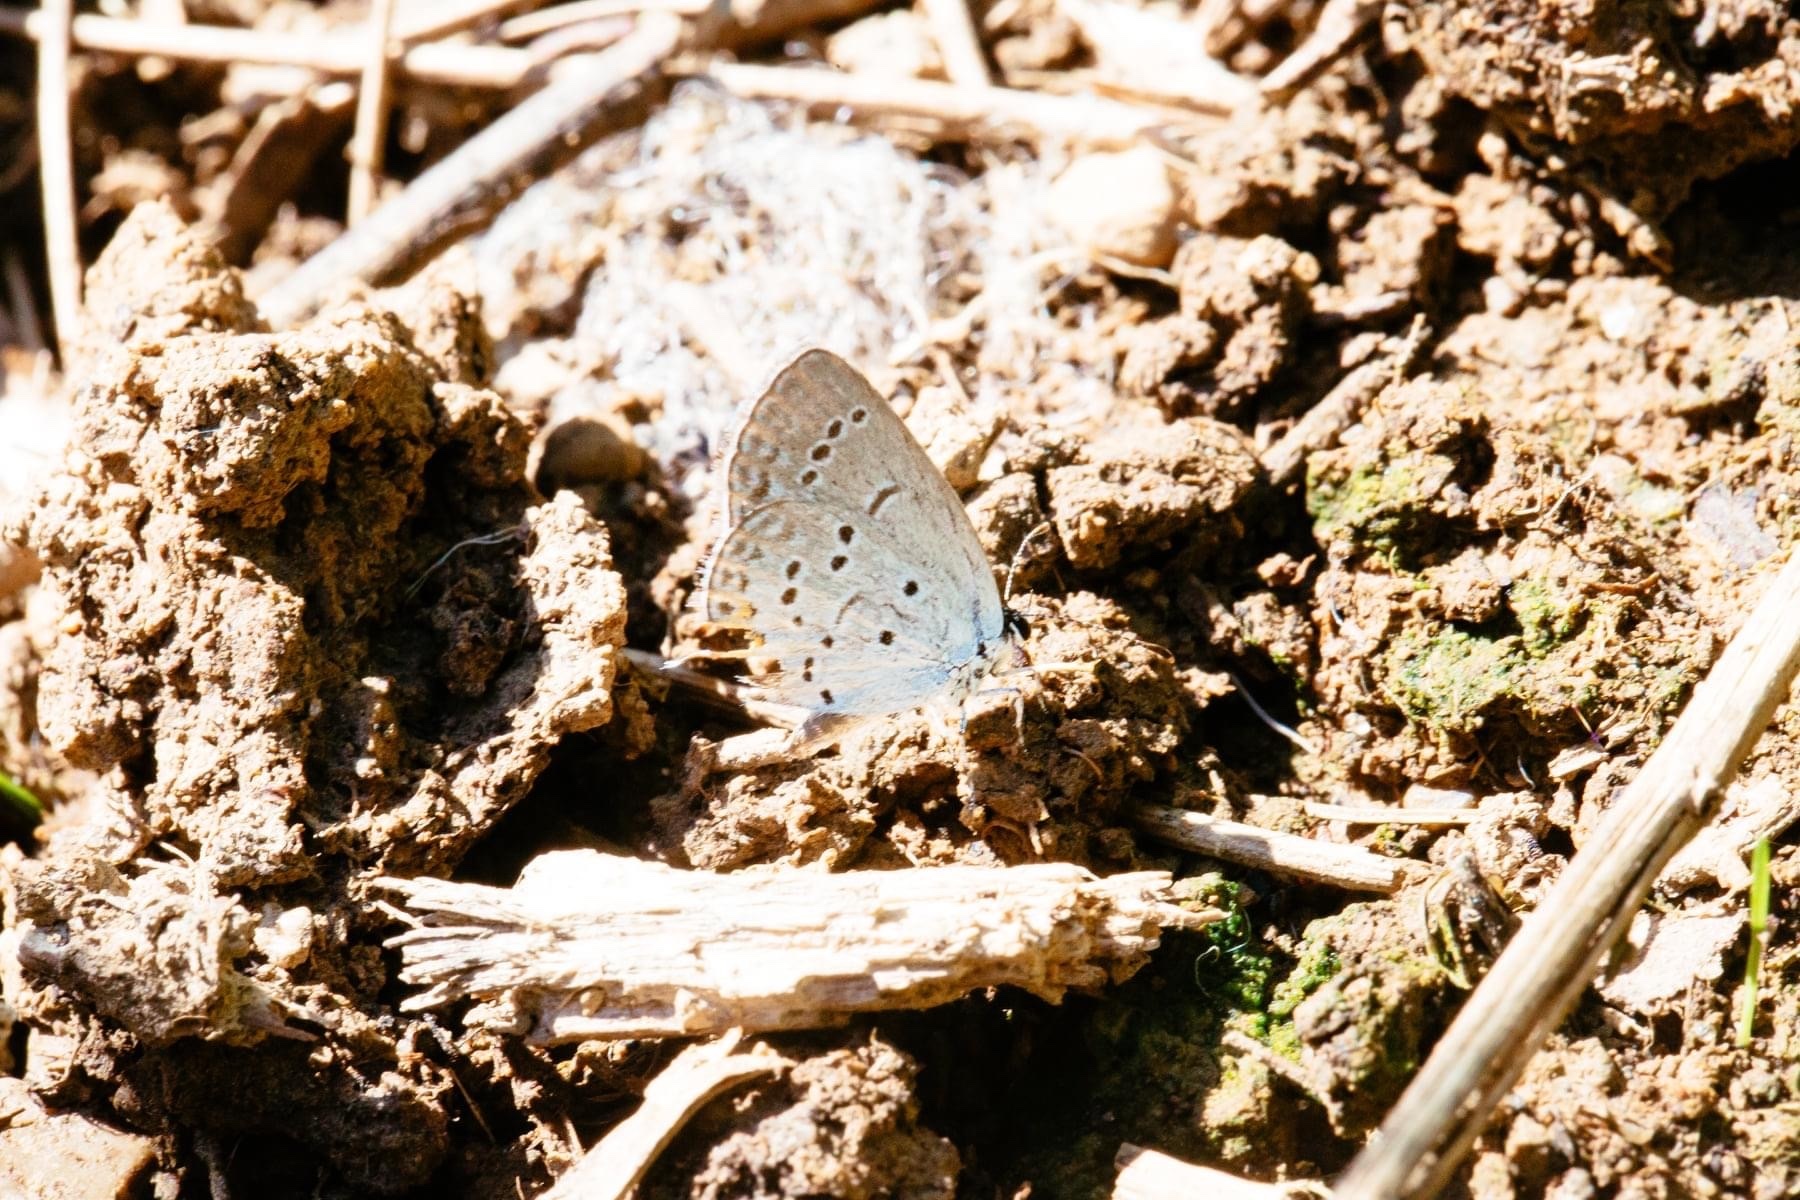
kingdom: Animalia
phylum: Arthropoda
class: Insecta
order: Lepidoptera
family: Lycaenidae
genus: Elkalyce
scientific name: Elkalyce comyntas
